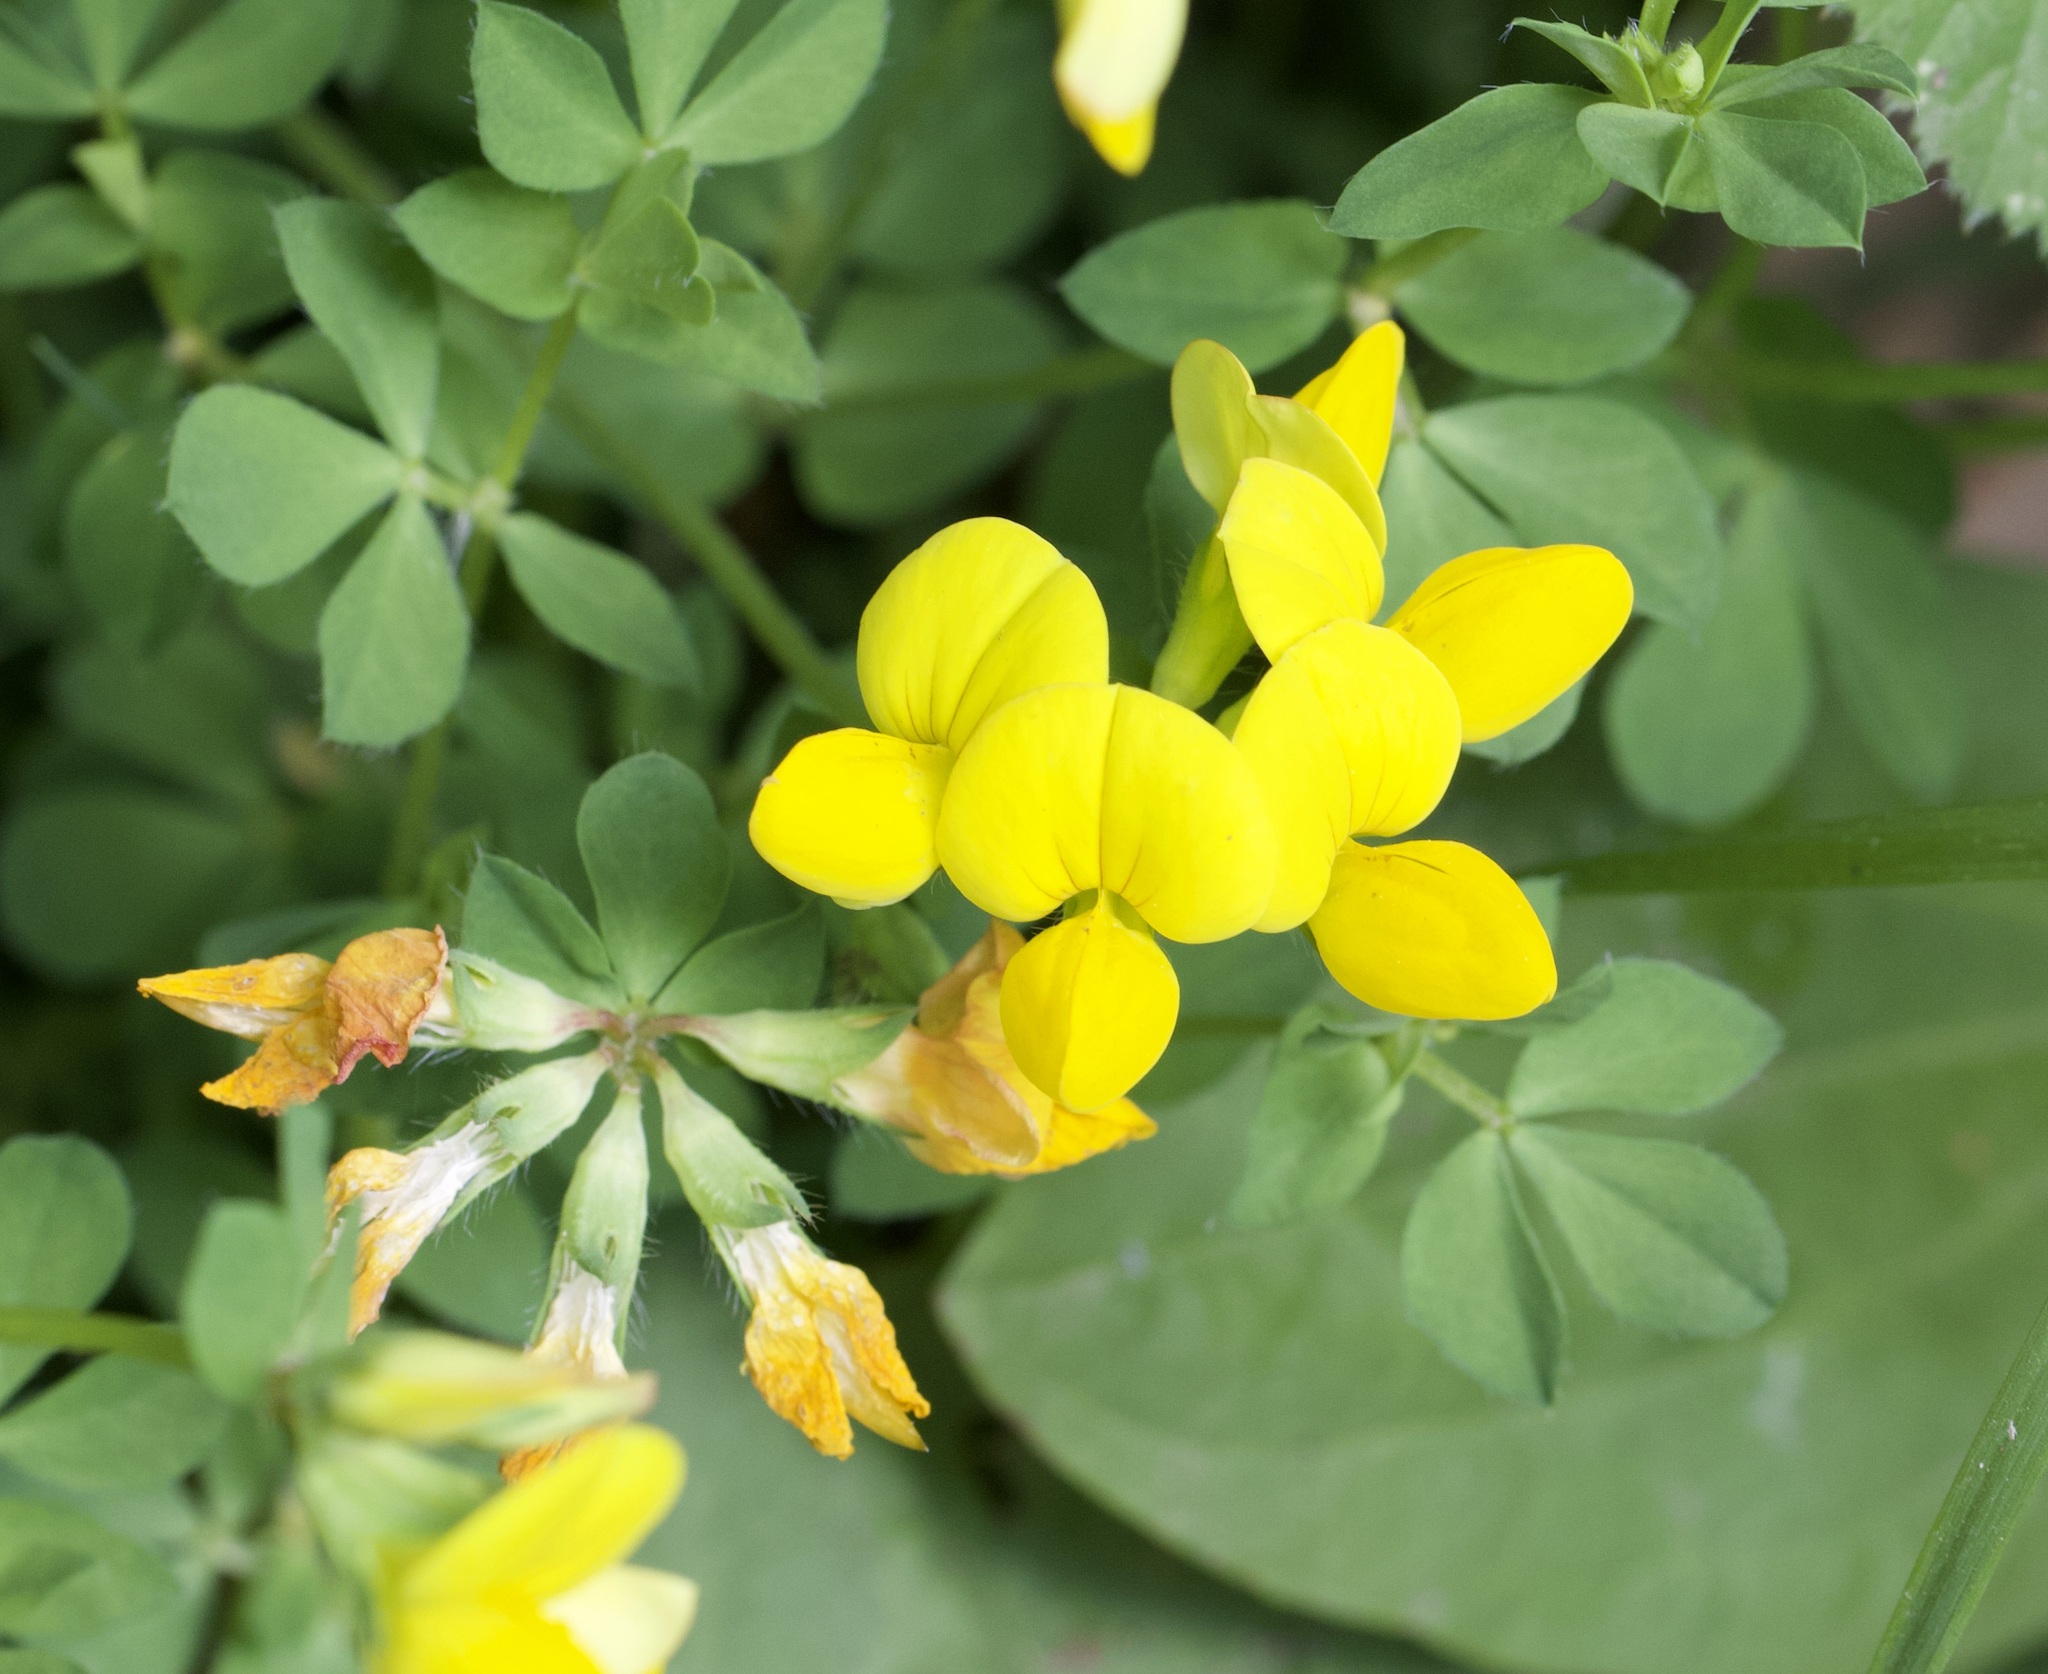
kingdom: Plantae
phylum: Tracheophyta
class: Magnoliopsida
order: Fabales
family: Fabaceae
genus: Lotus
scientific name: Lotus corniculatus
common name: Common bird's-foot-trefoil
